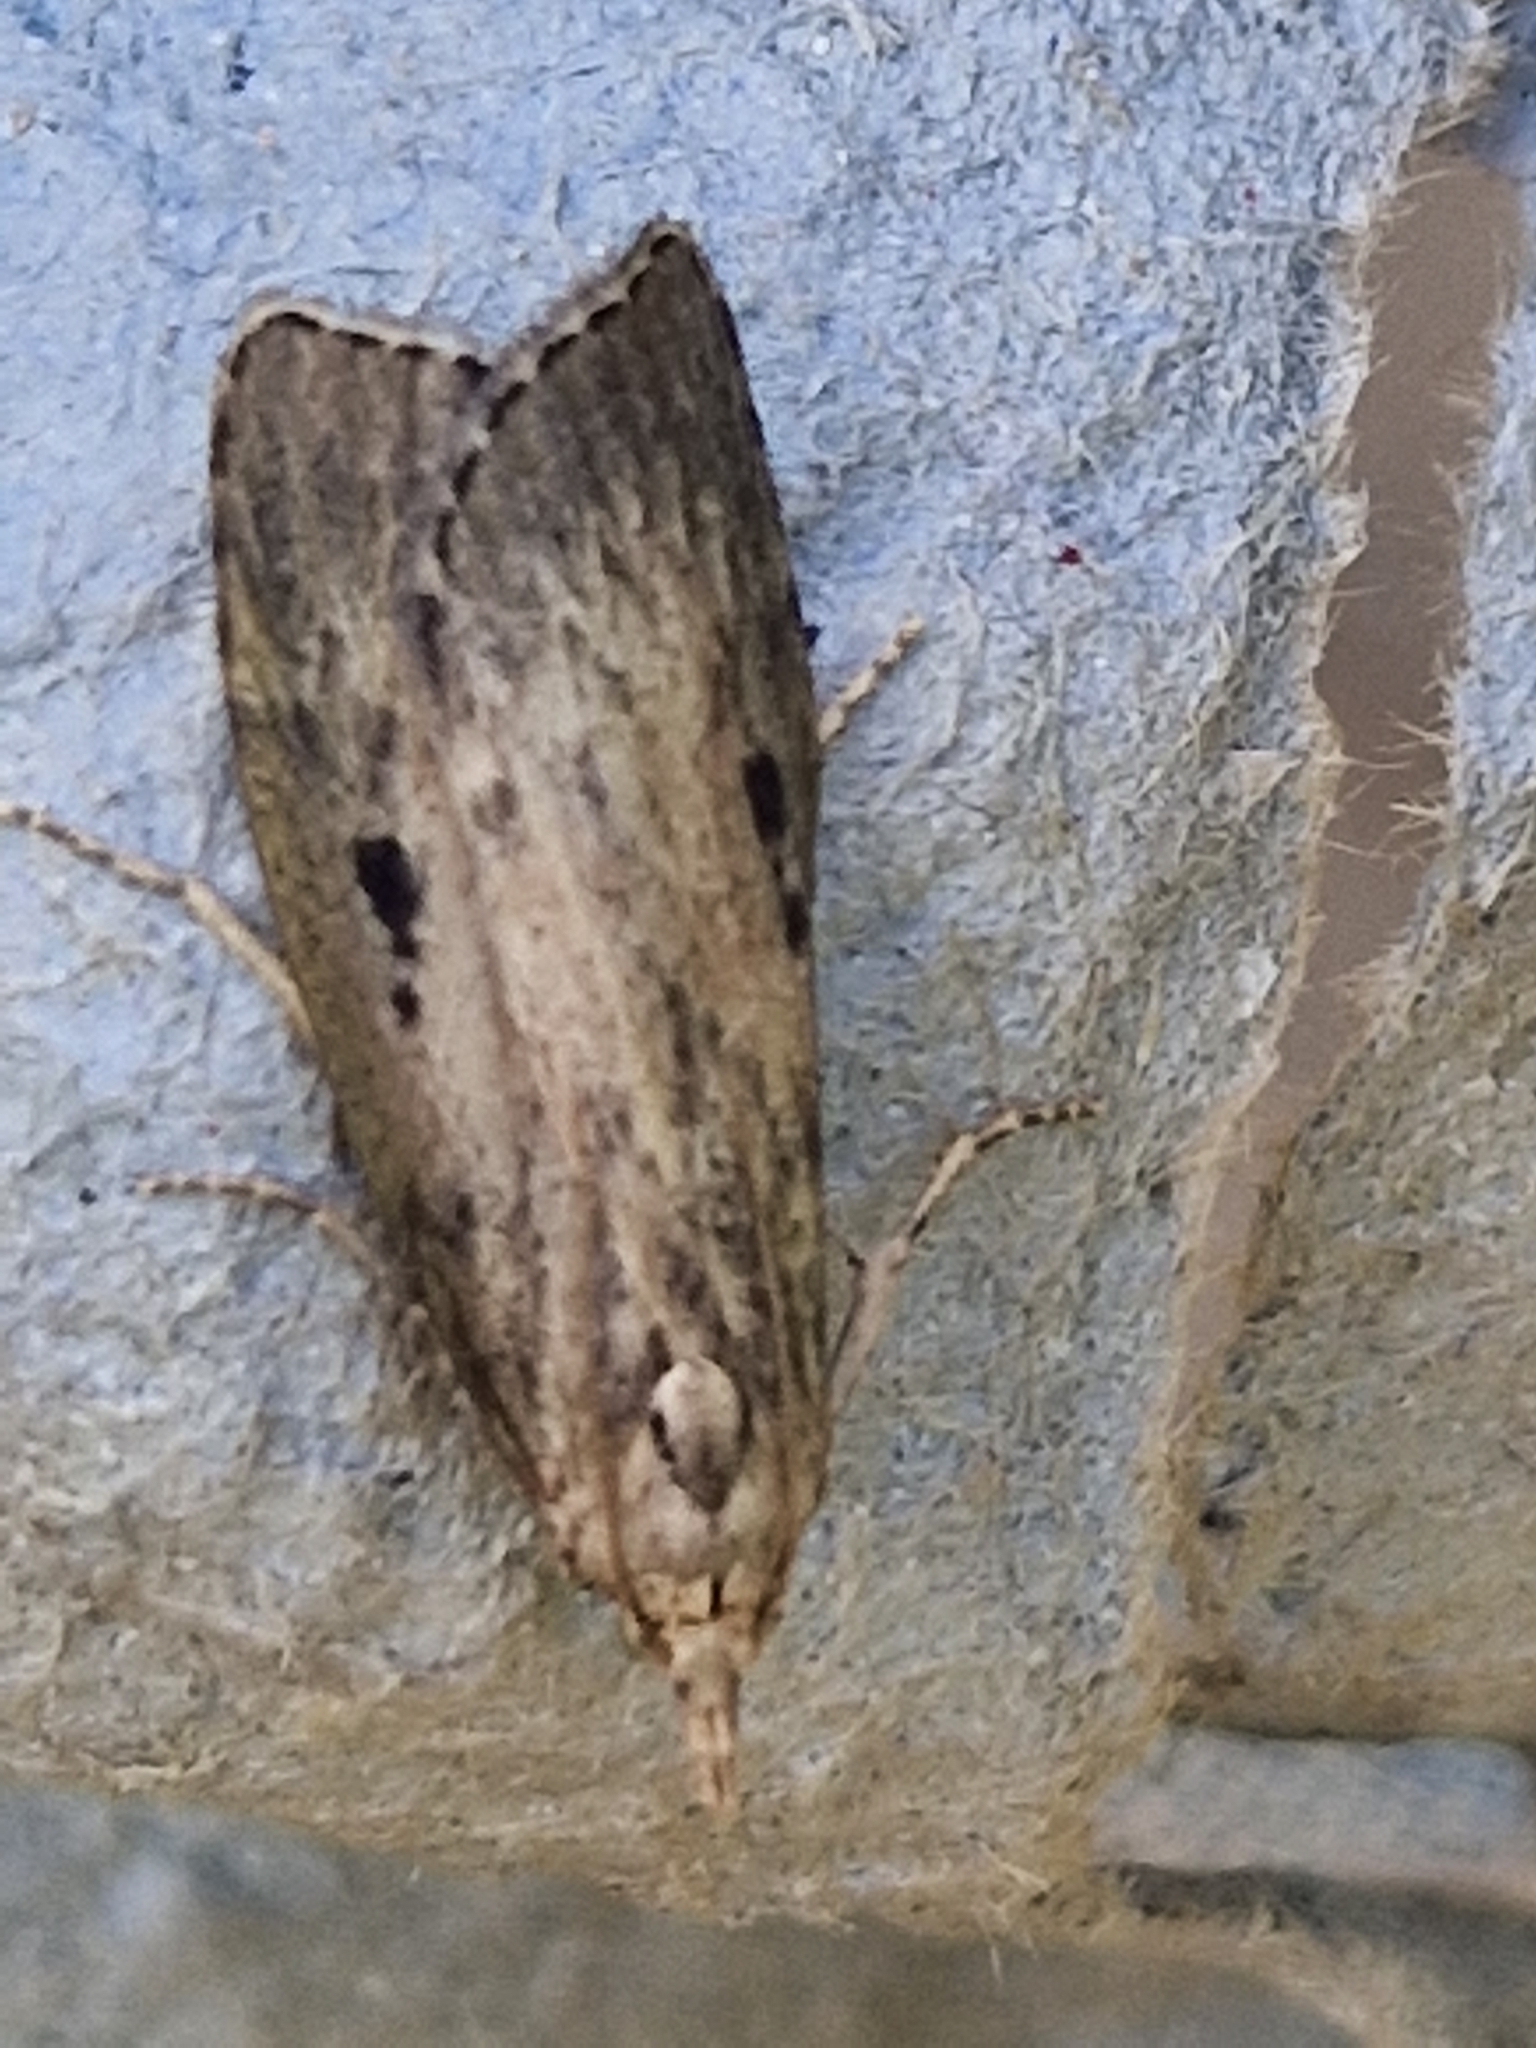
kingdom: Animalia
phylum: Arthropoda
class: Insecta
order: Lepidoptera
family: Pyralidae
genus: Aphomia
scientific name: Aphomia sociella
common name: Bee moth
